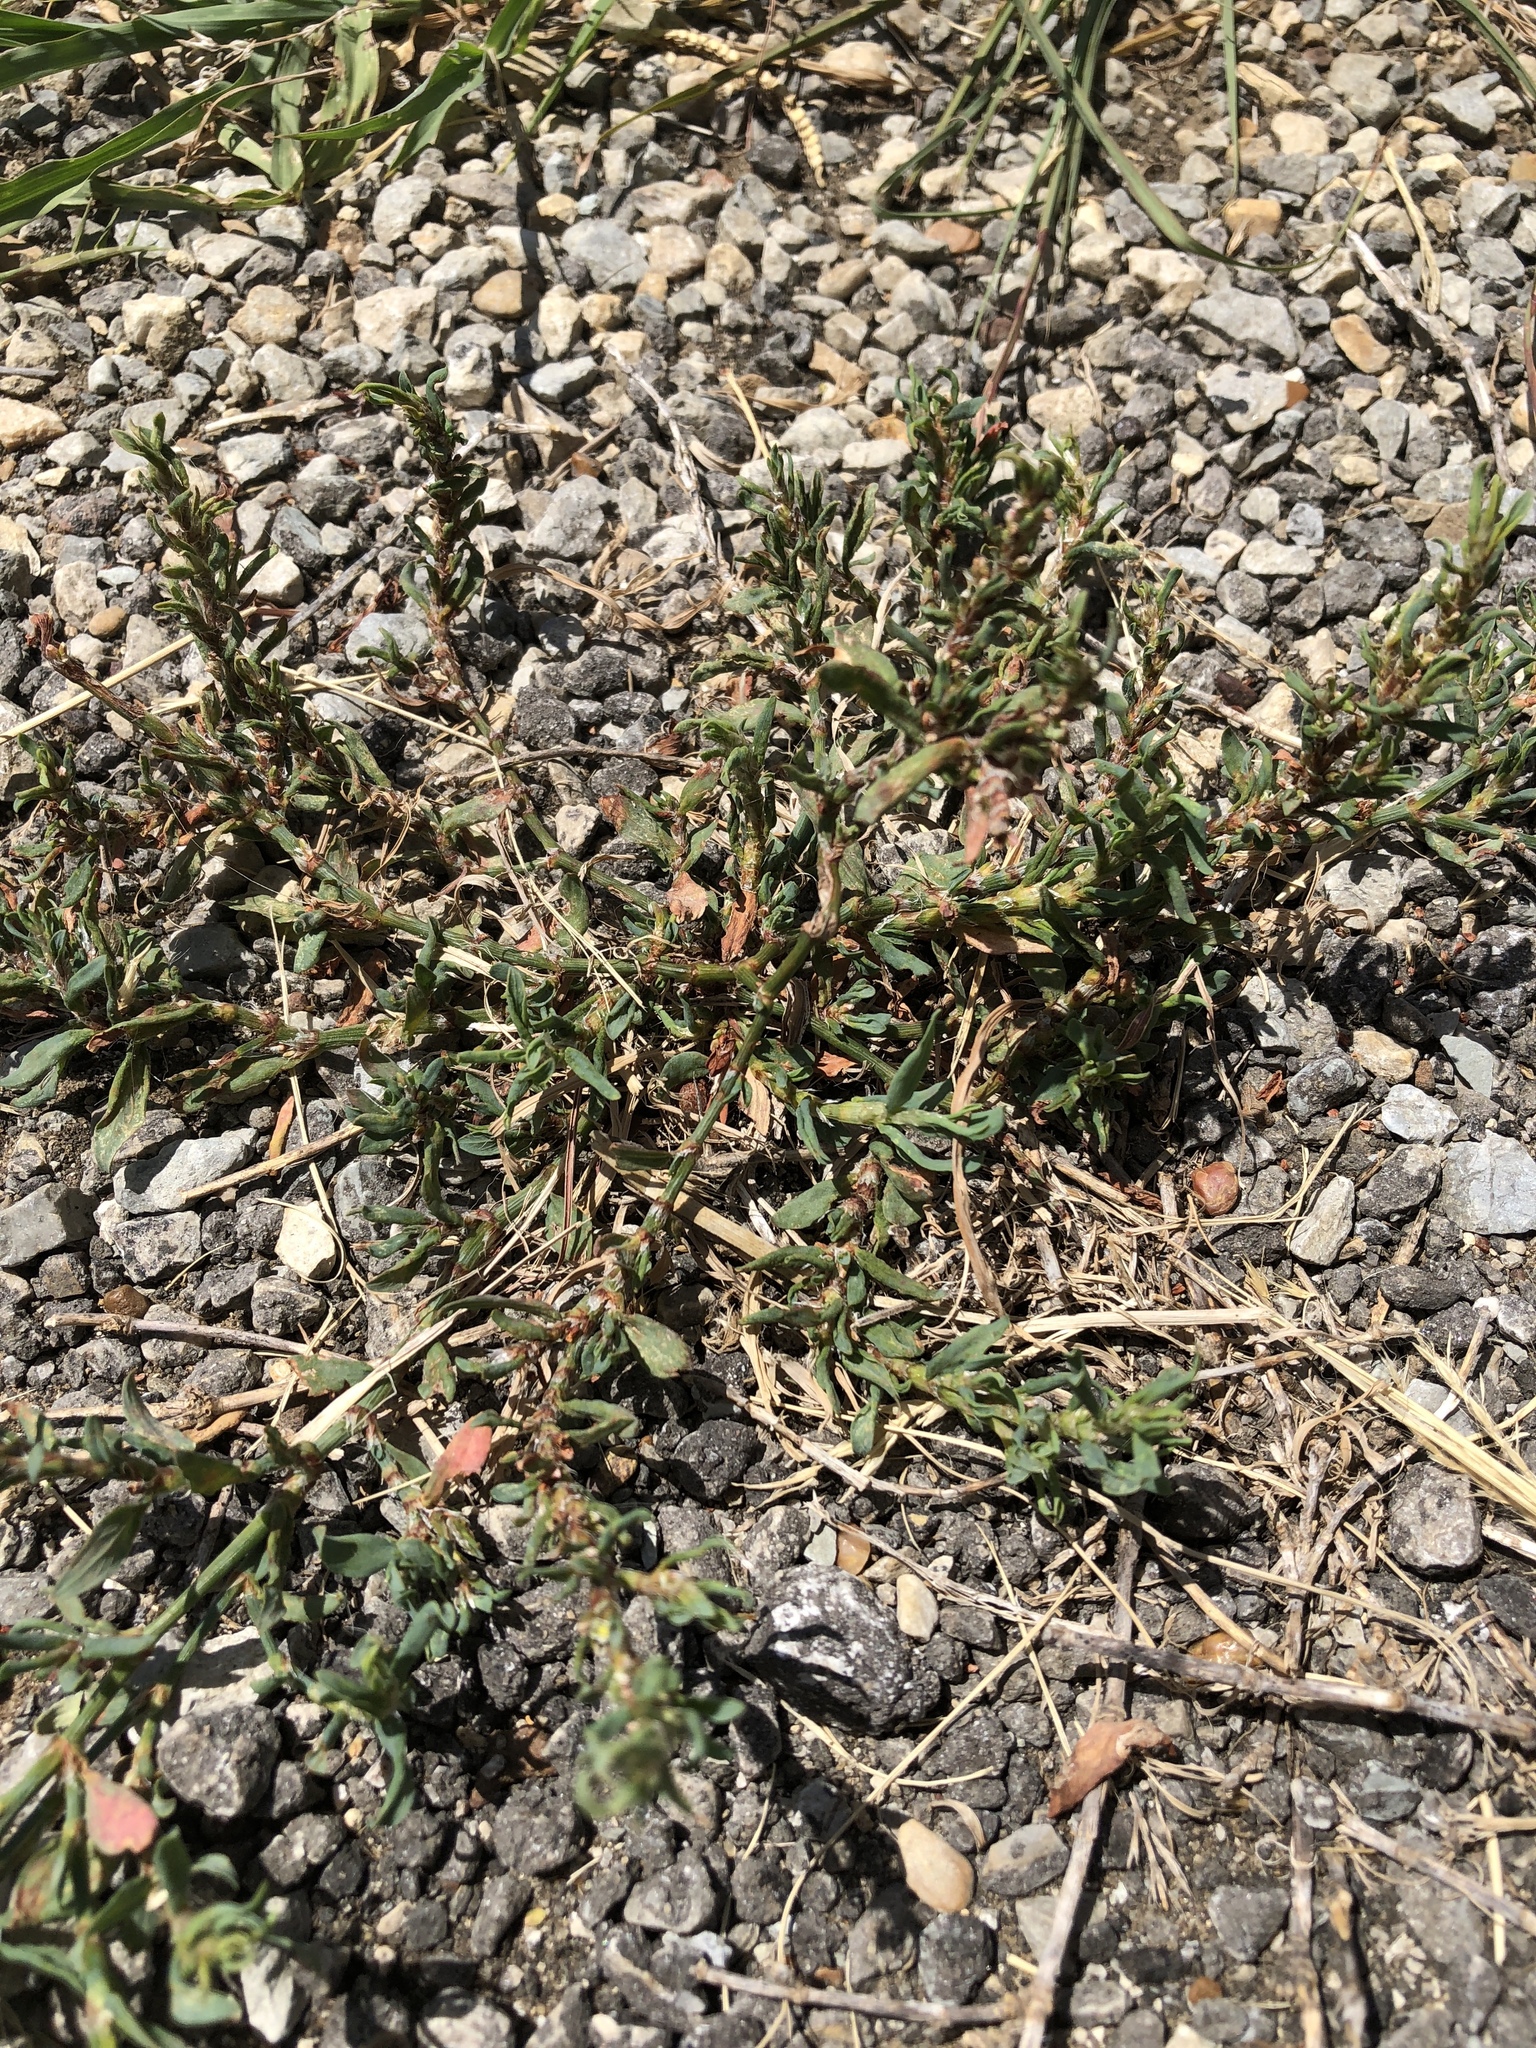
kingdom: Plantae
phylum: Tracheophyta
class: Magnoliopsida
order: Caryophyllales
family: Polygonaceae
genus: Polygonum
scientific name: Polygonum aviculare
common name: Prostrate knotweed
